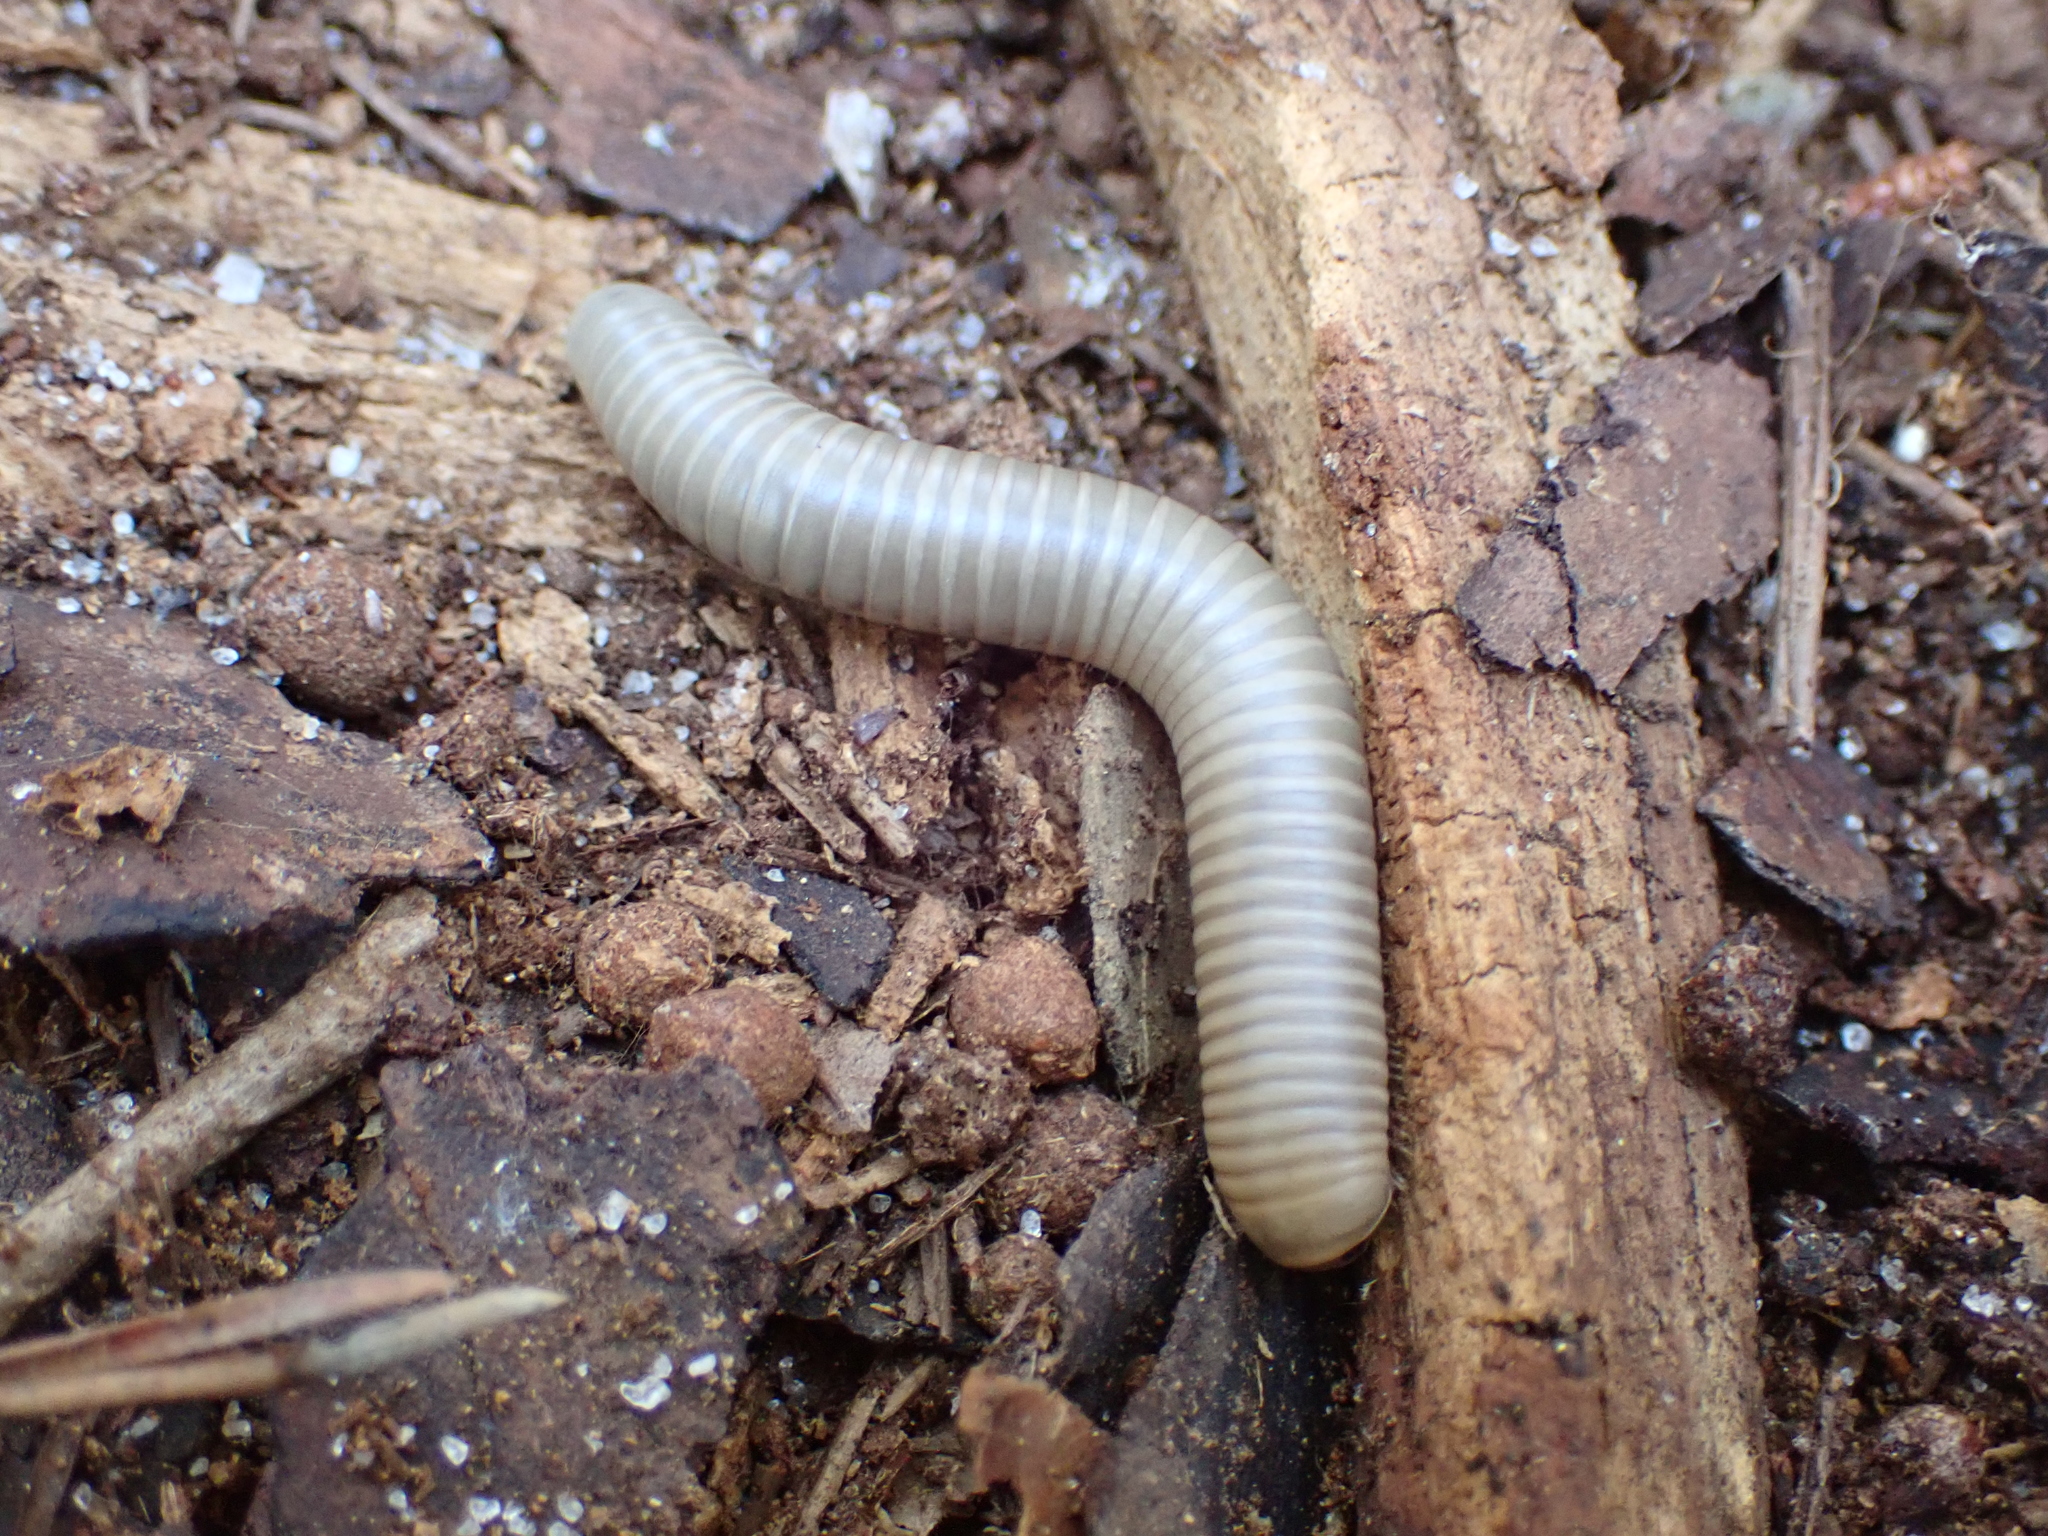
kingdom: Animalia
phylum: Arthropoda
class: Diplopoda
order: Spirobolida
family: Spirobolidae
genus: Narceus
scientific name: Narceus gordanus
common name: Grayish-green millipede
